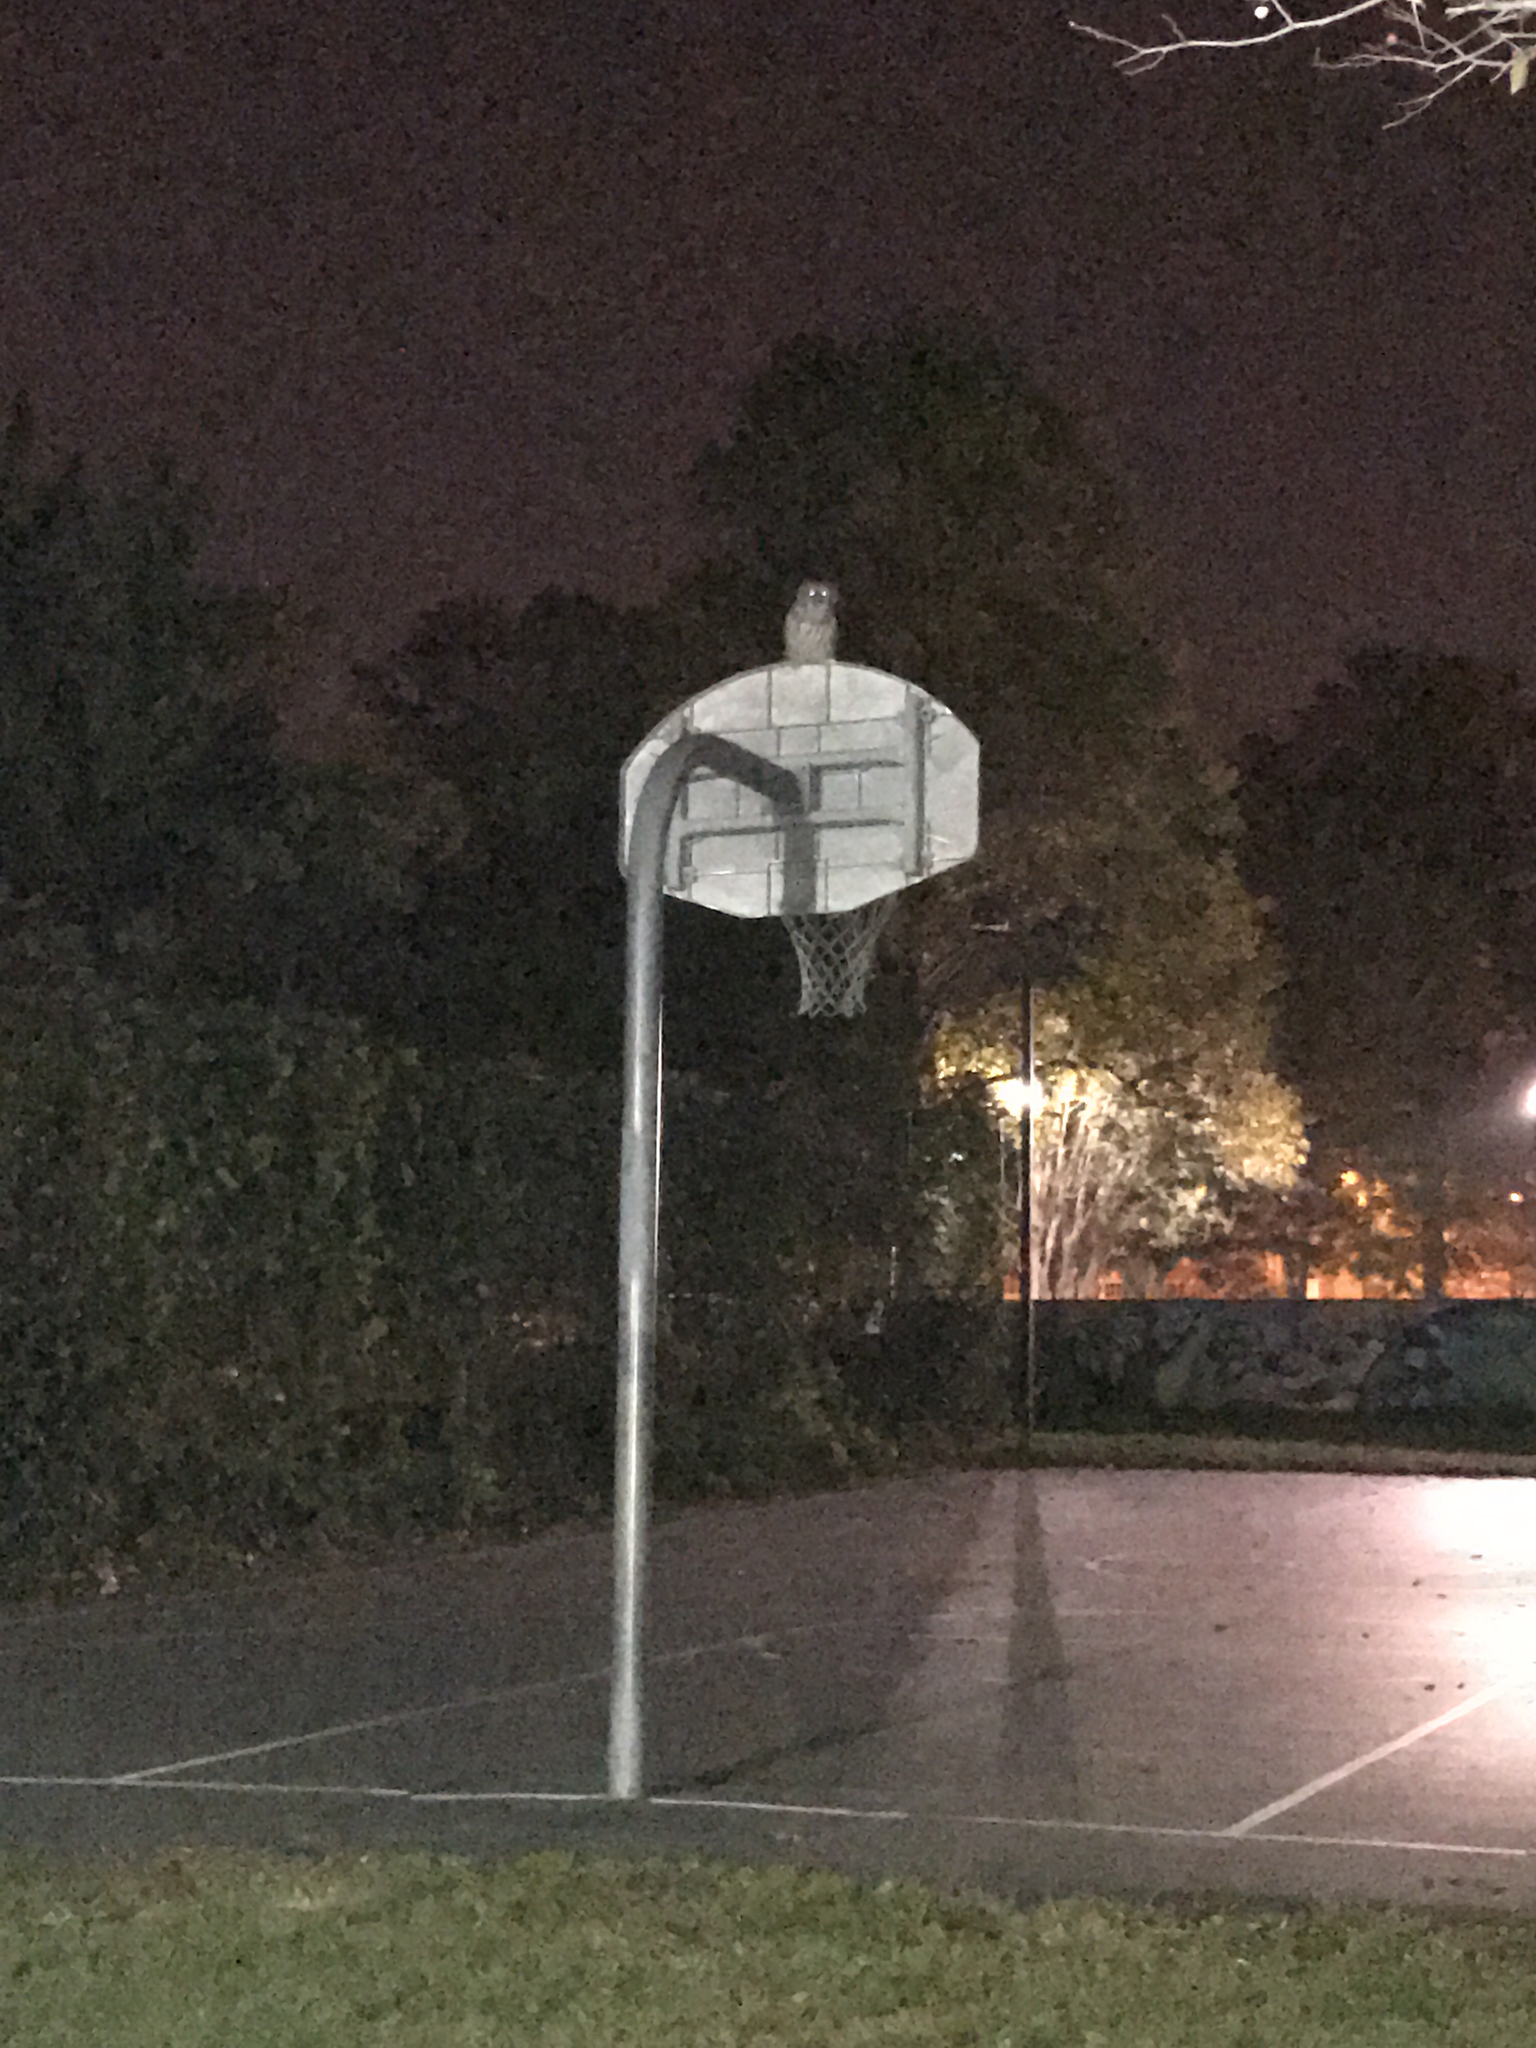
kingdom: Animalia
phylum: Chordata
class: Aves
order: Strigiformes
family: Strigidae
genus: Strix
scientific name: Strix varia
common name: Barred owl
